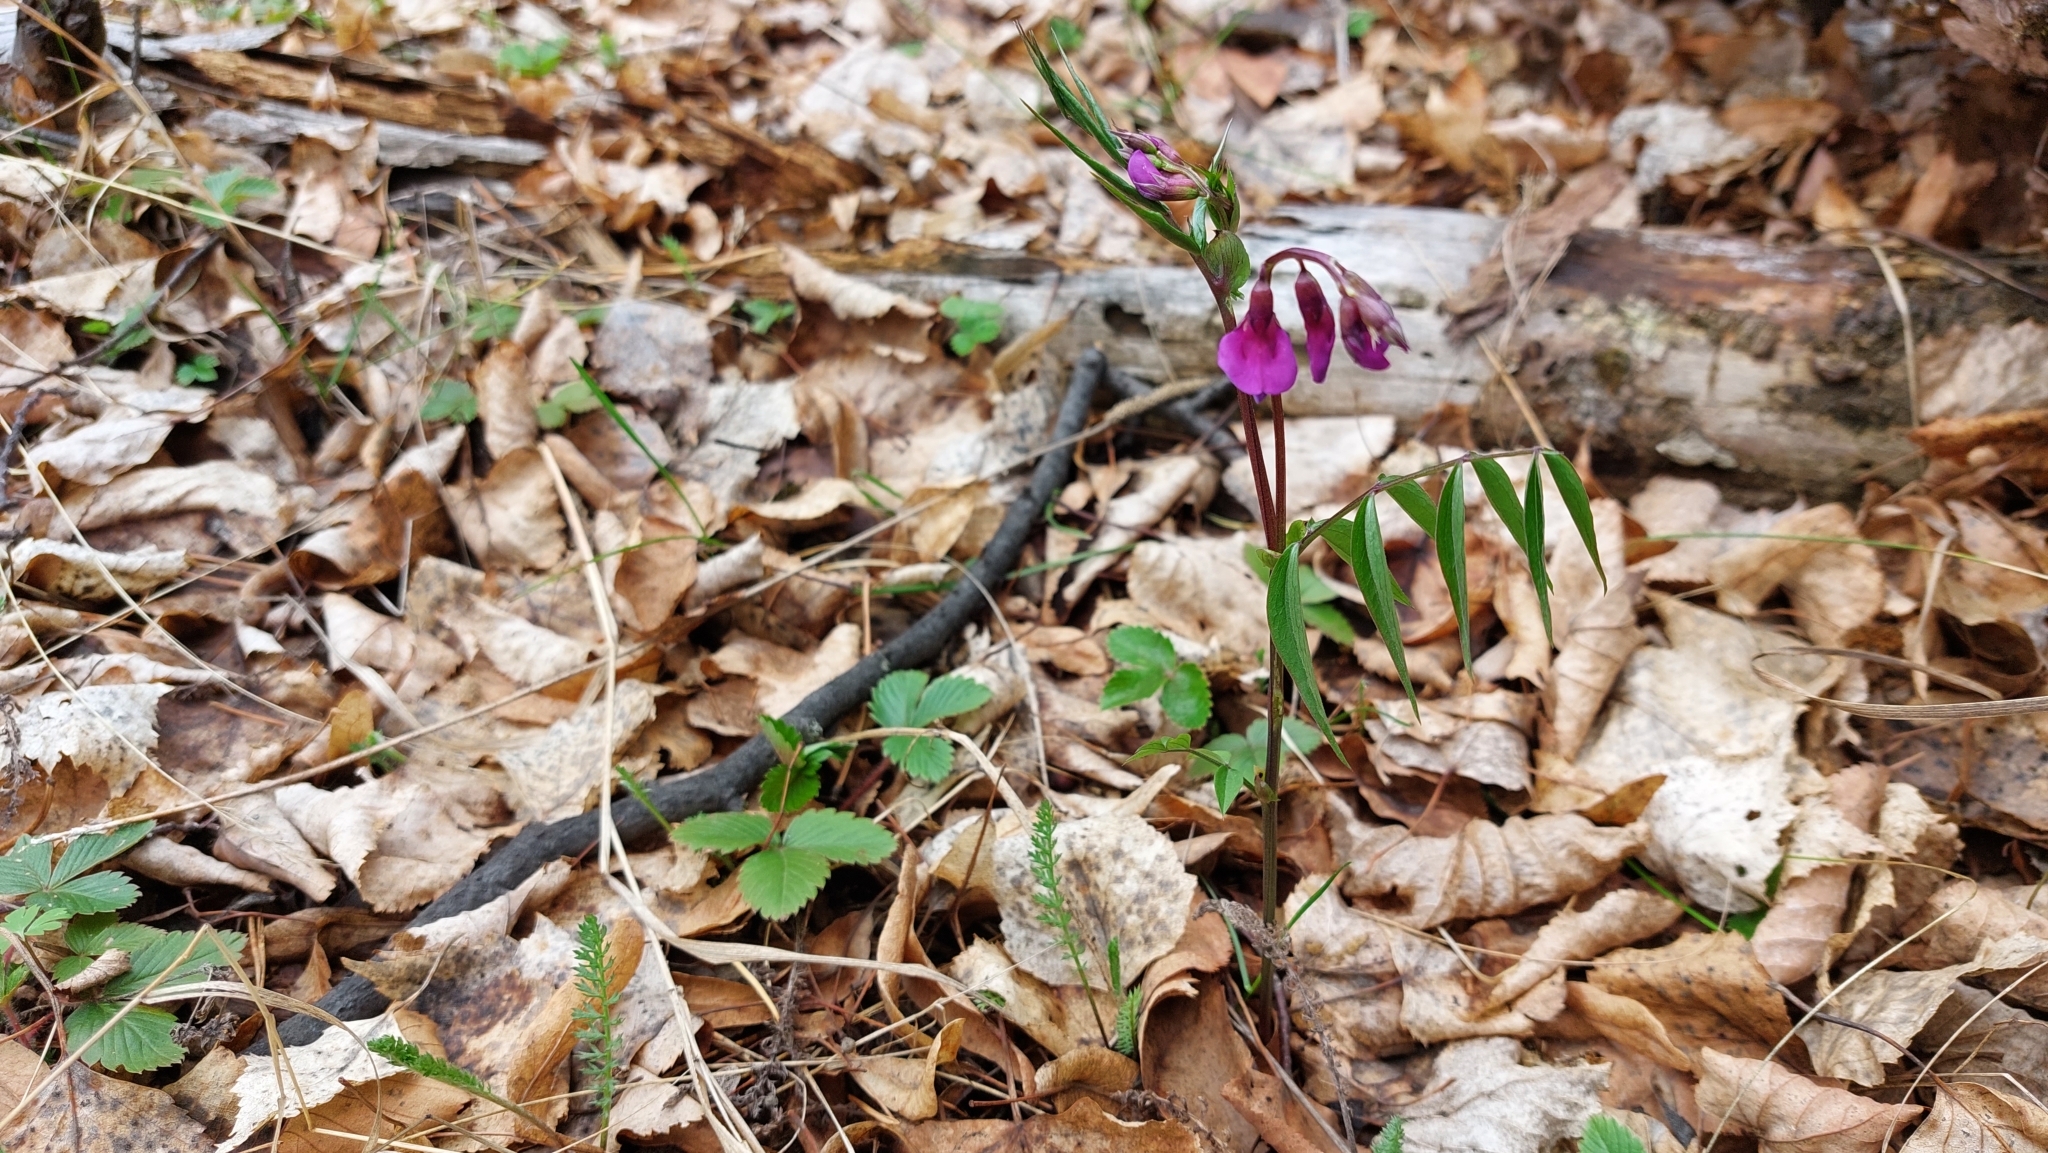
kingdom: Plantae
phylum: Tracheophyta
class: Magnoliopsida
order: Fabales
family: Fabaceae
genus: Lathyrus
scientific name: Lathyrus vernus
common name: Spring pea
